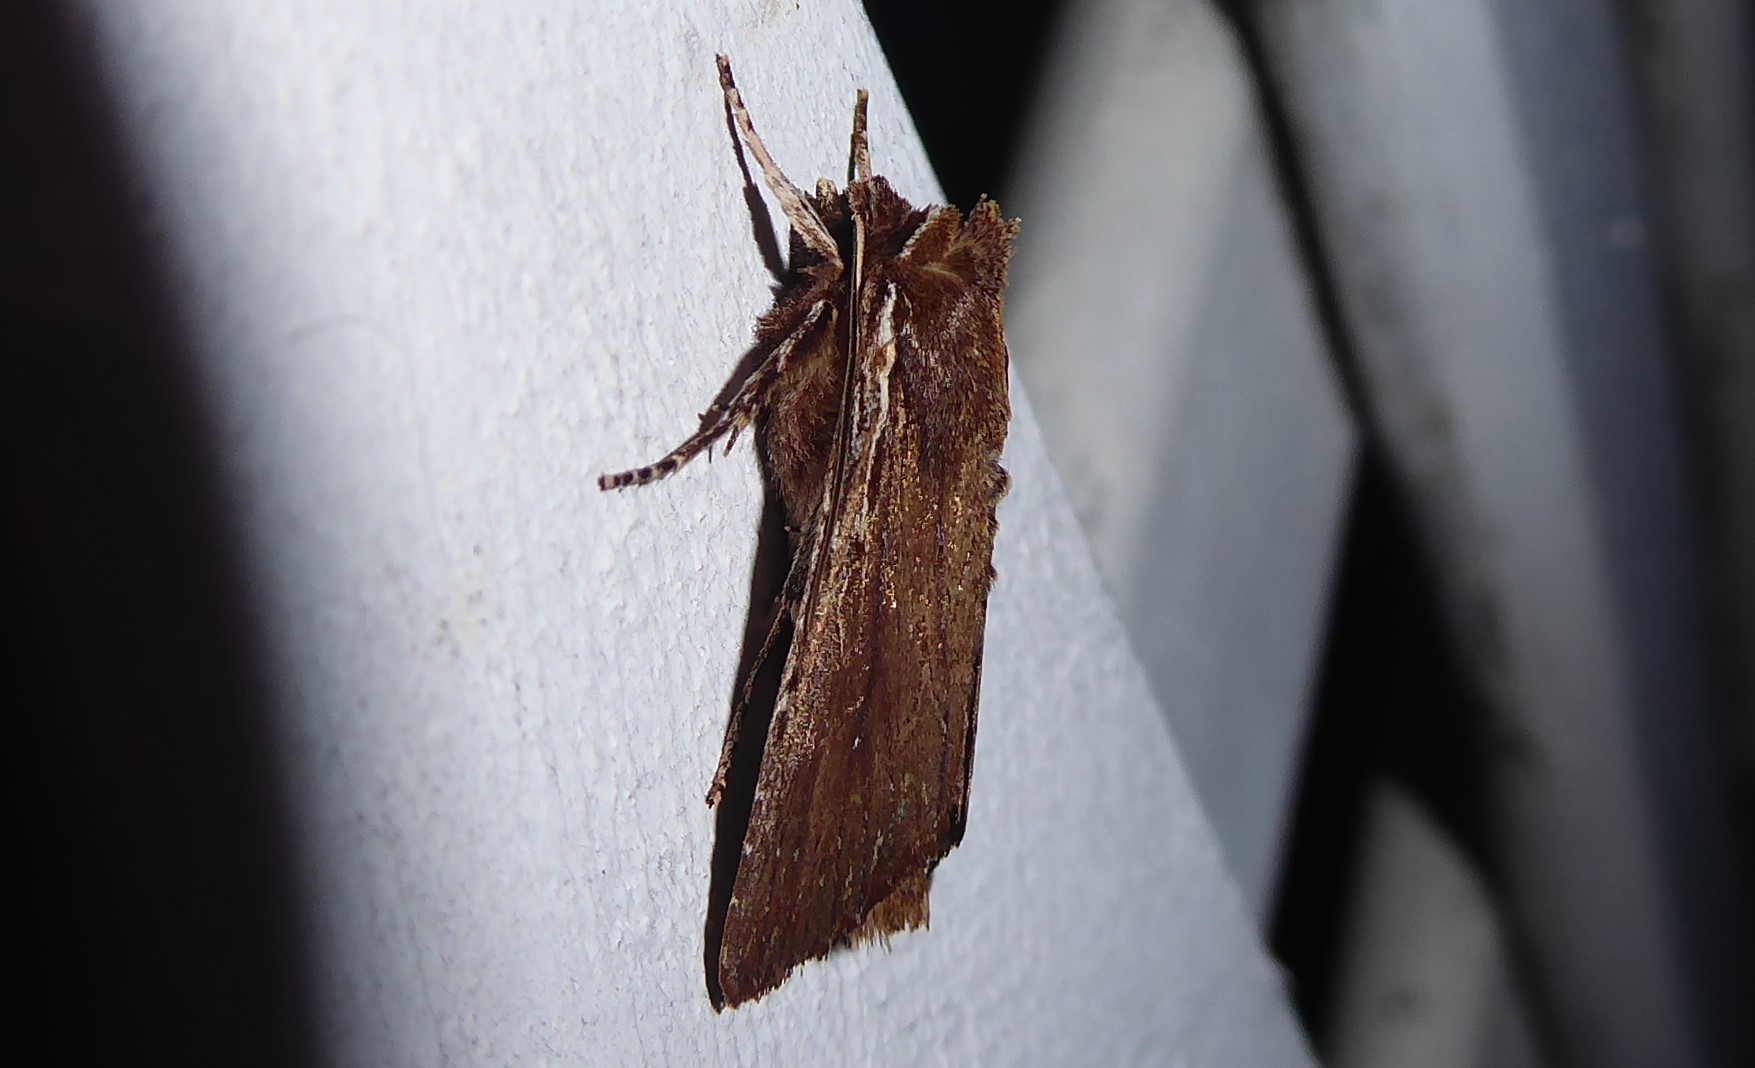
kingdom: Animalia
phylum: Arthropoda
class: Insecta
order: Lepidoptera
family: Noctuidae
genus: Ichneutica
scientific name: Ichneutica
